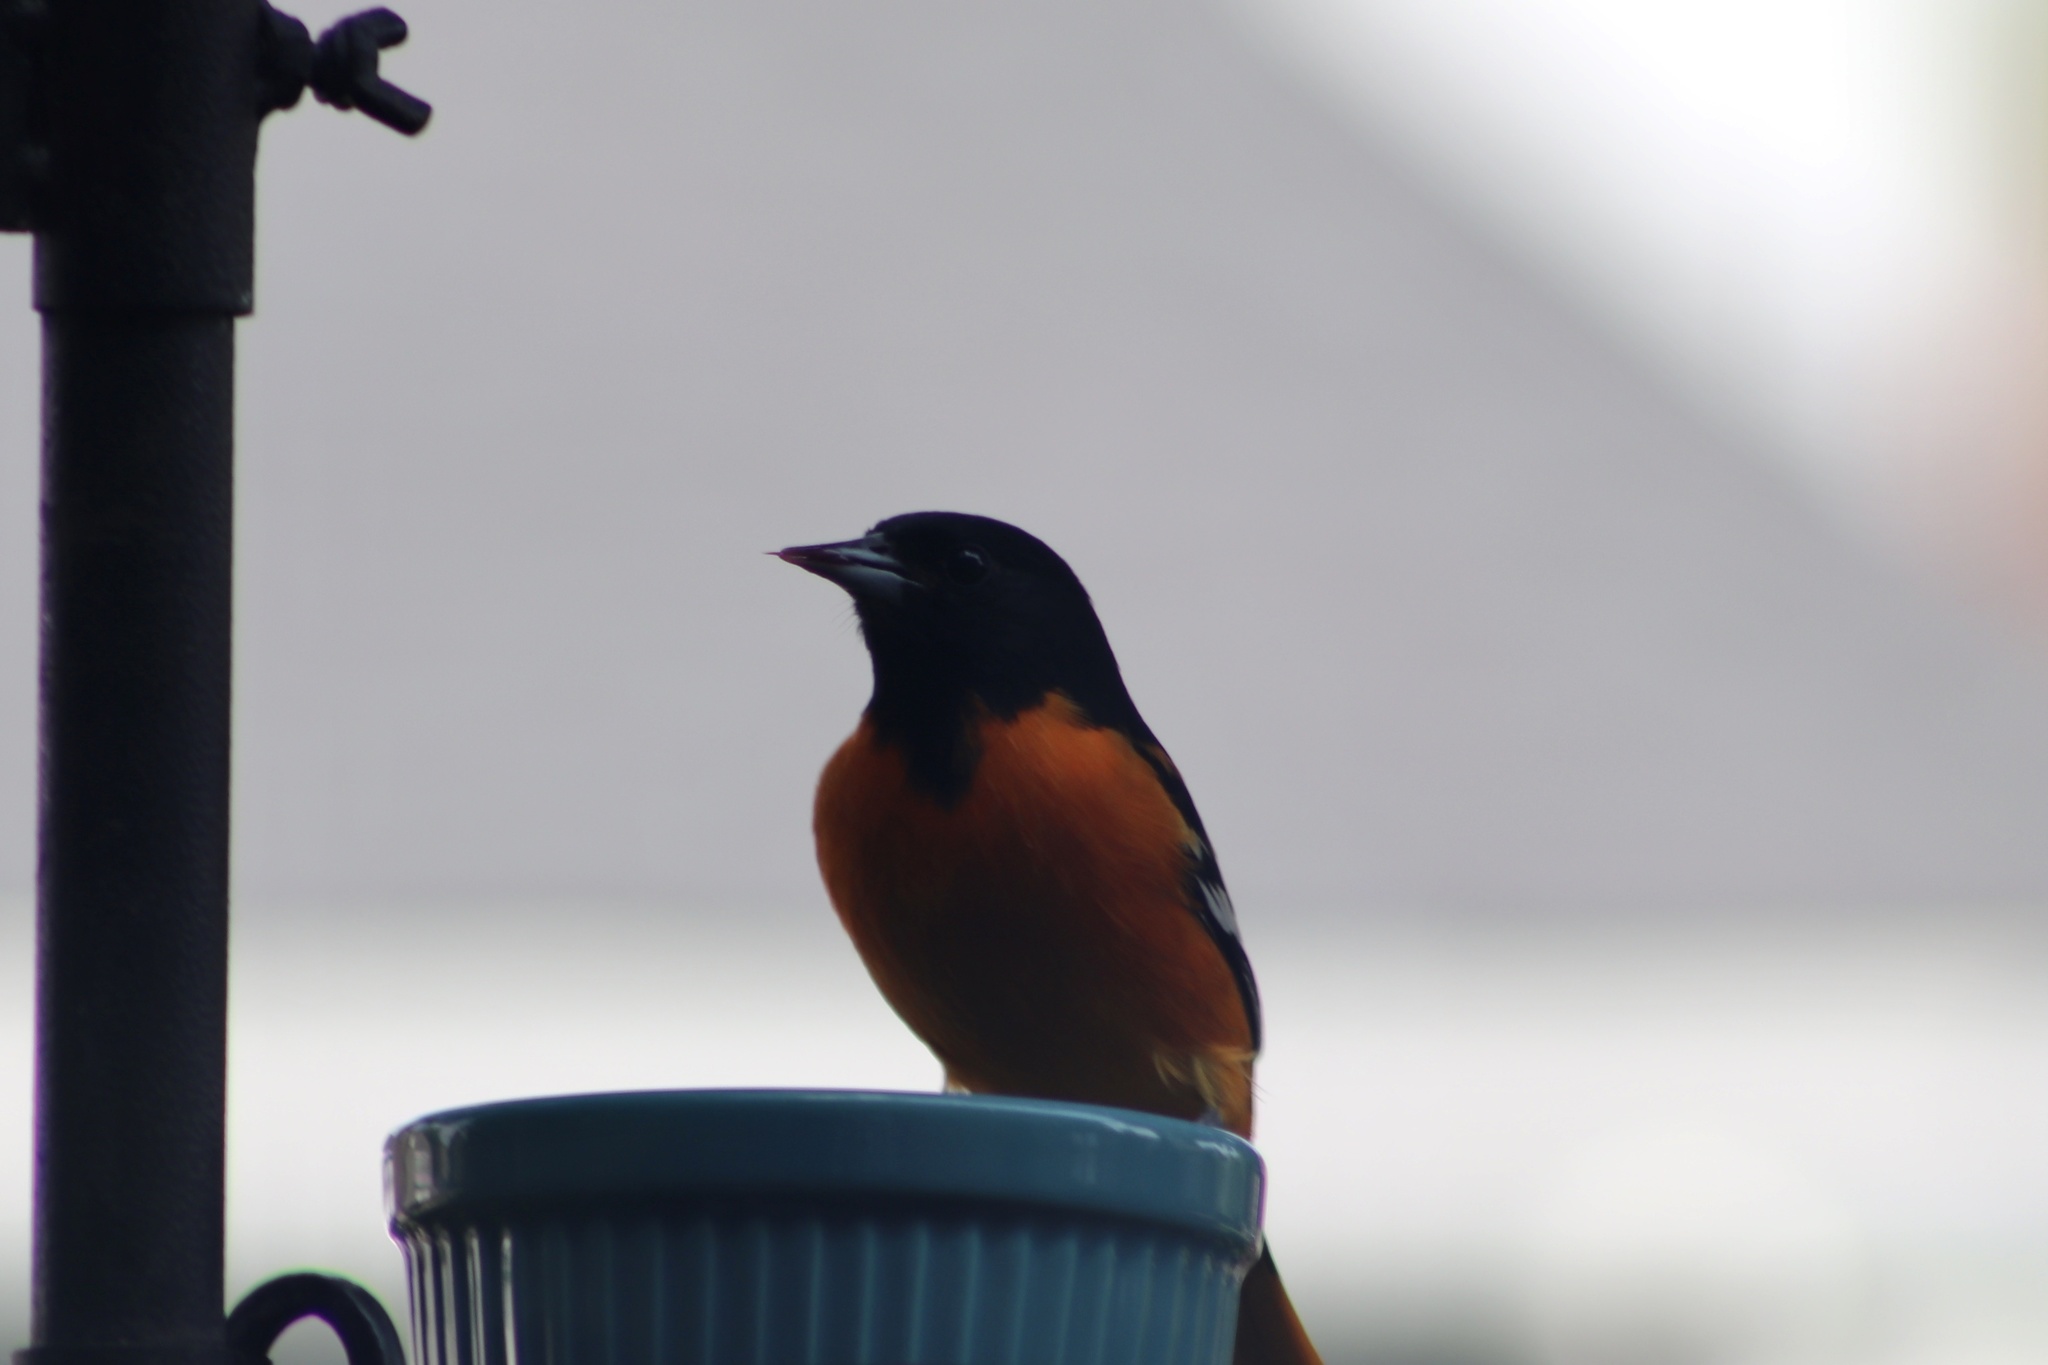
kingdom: Animalia
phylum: Chordata
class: Aves
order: Passeriformes
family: Icteridae
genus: Icterus
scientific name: Icterus galbula
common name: Baltimore oriole
